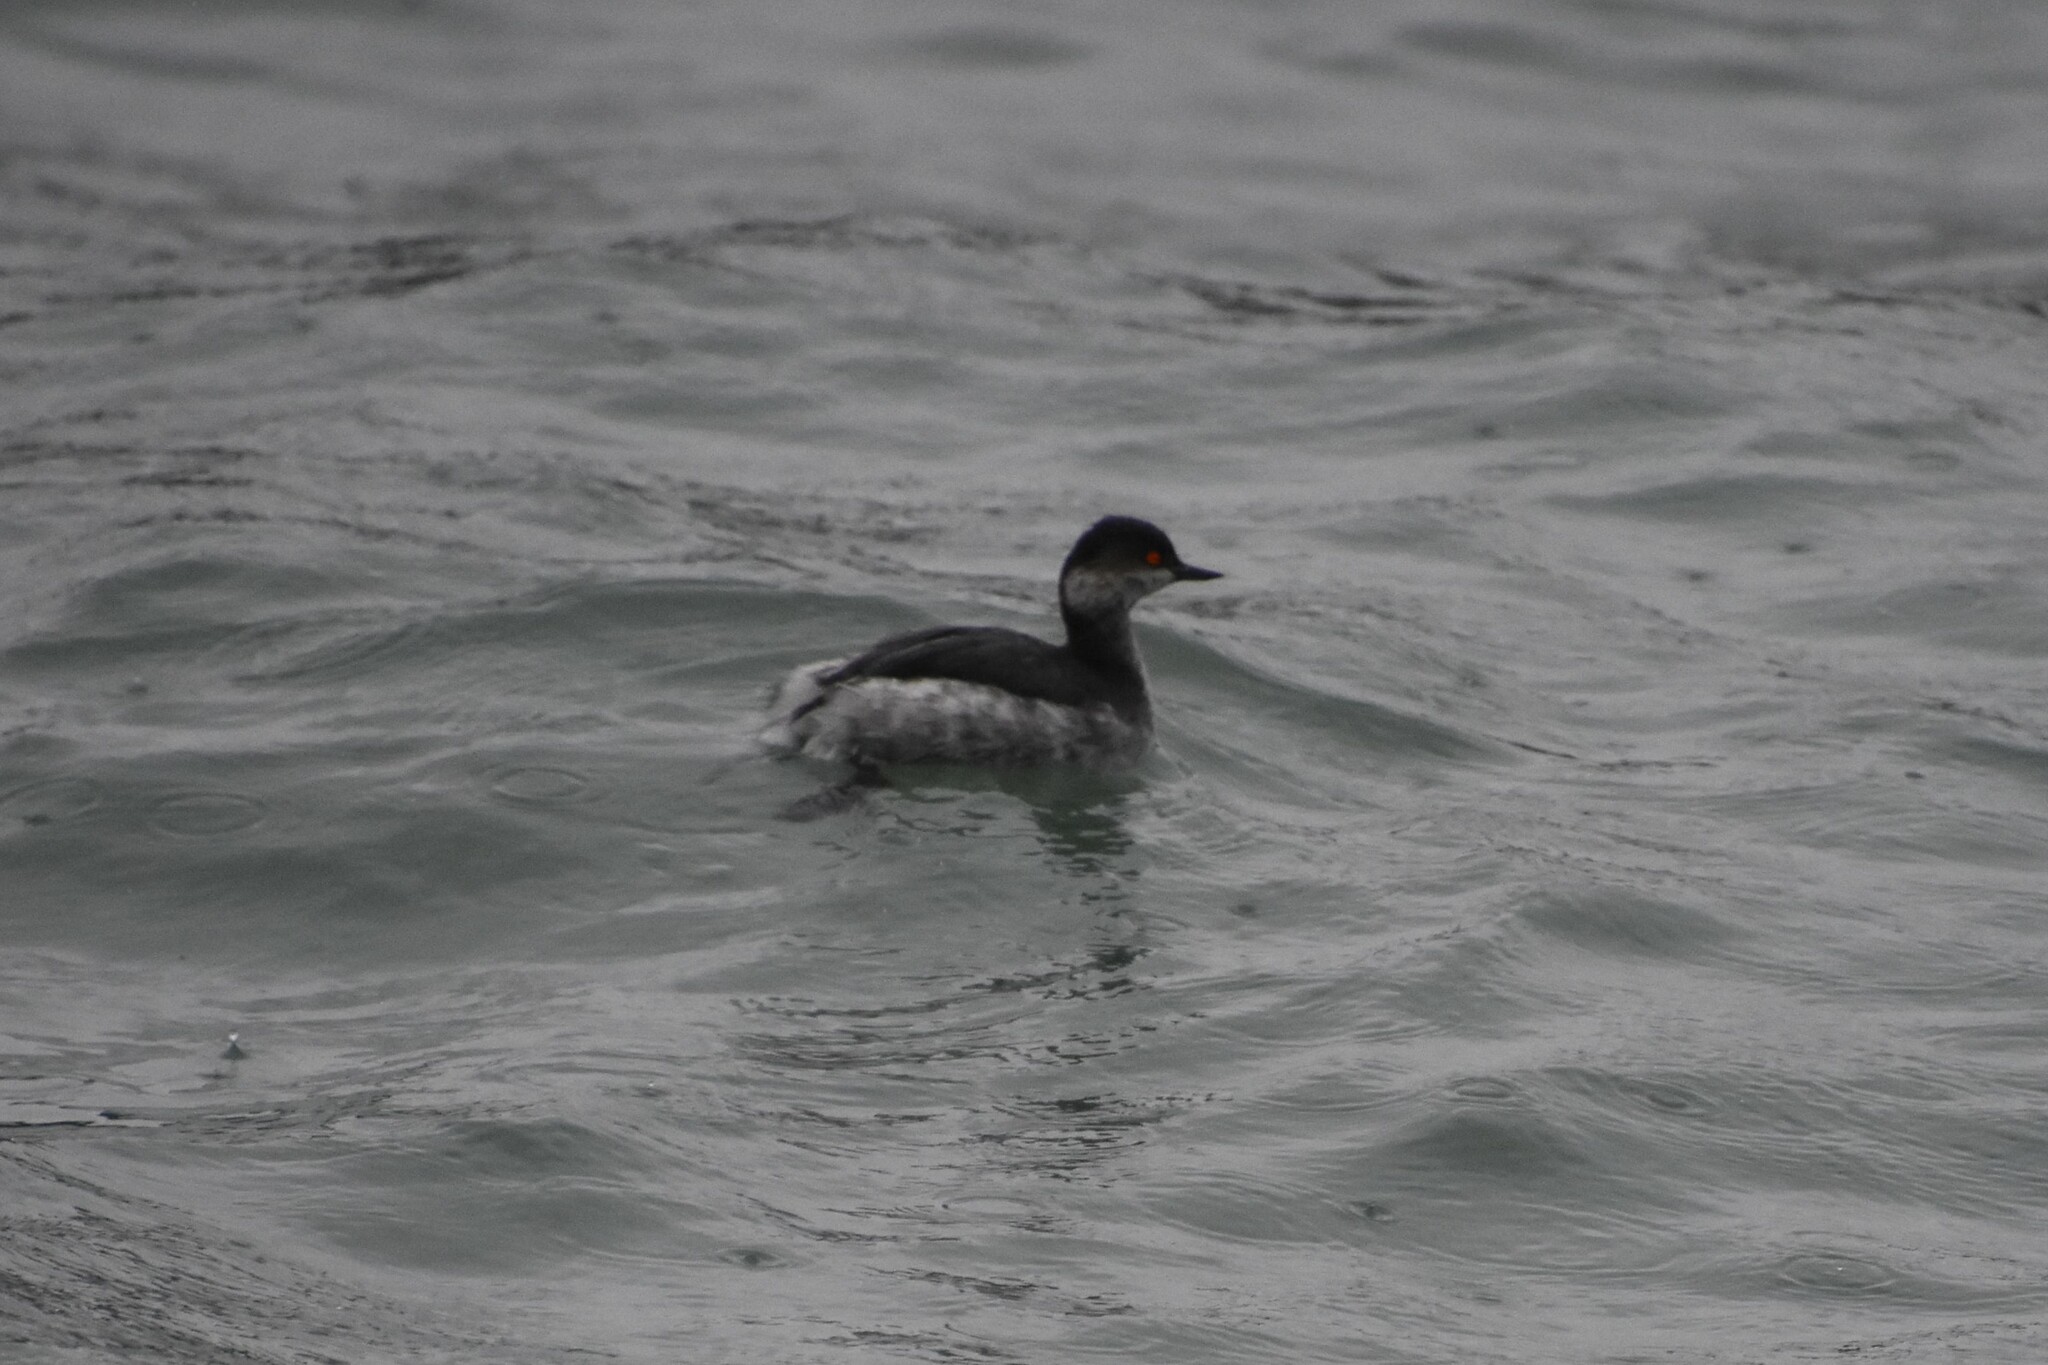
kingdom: Animalia
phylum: Chordata
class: Aves
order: Podicipediformes
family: Podicipedidae
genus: Podiceps
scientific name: Podiceps nigricollis
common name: Black-necked grebe
